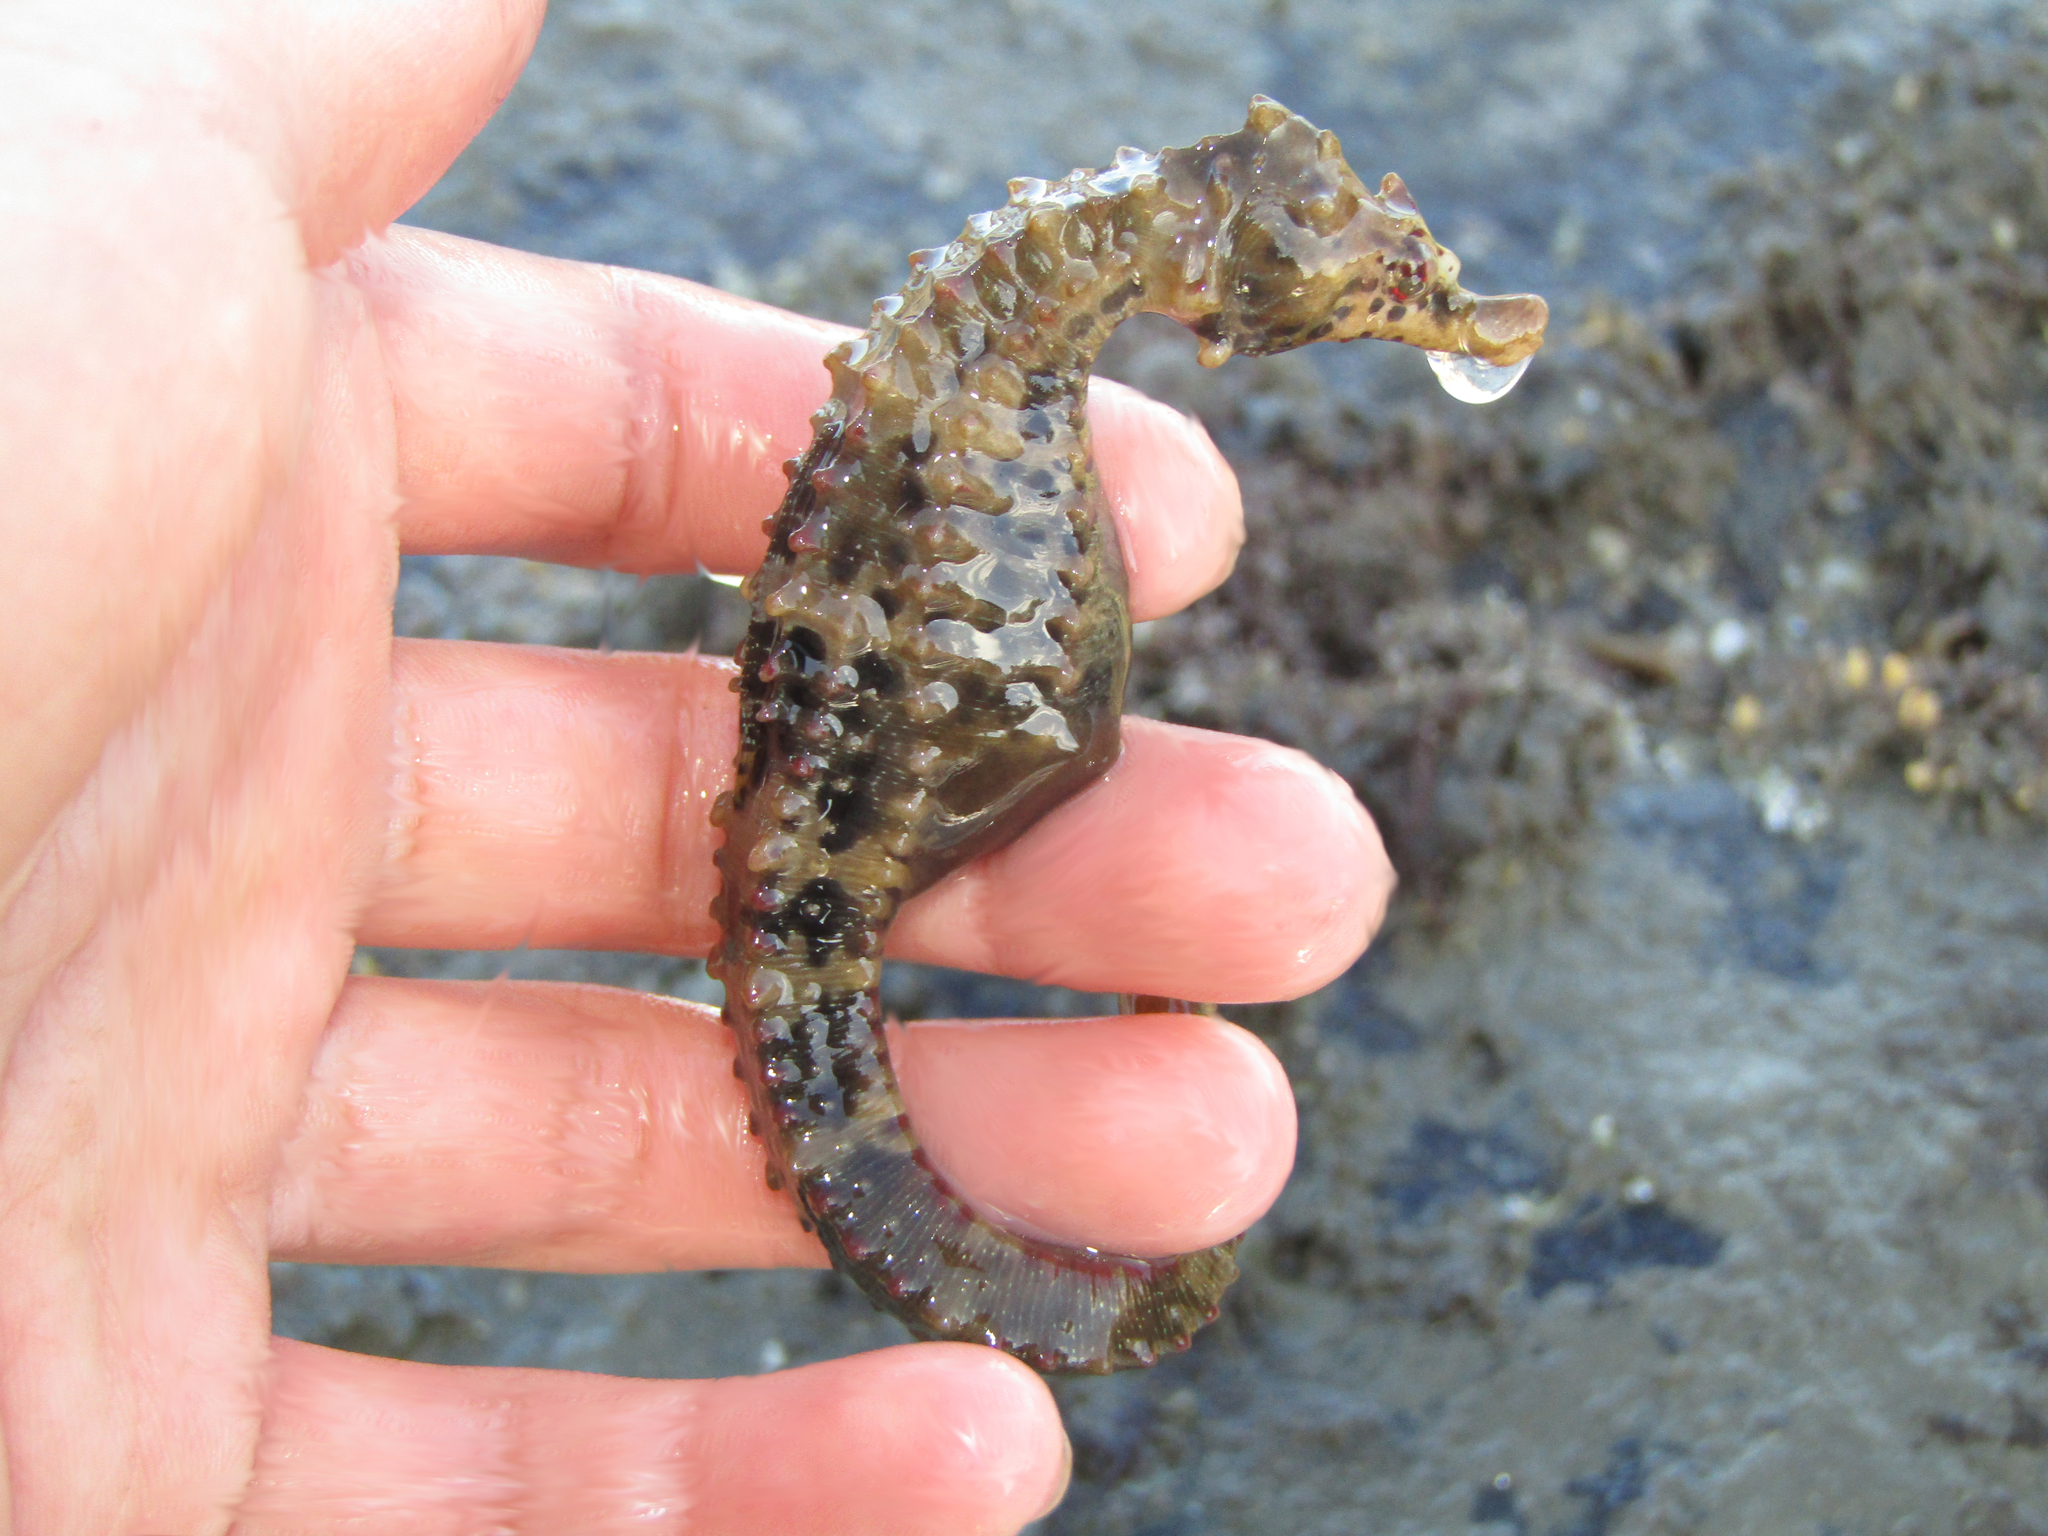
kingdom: Animalia
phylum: Chordata
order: Syngnathiformes
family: Syngnathidae
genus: Hippocampus
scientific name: Hippocampus abdominalis
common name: Big-belly seahorse
